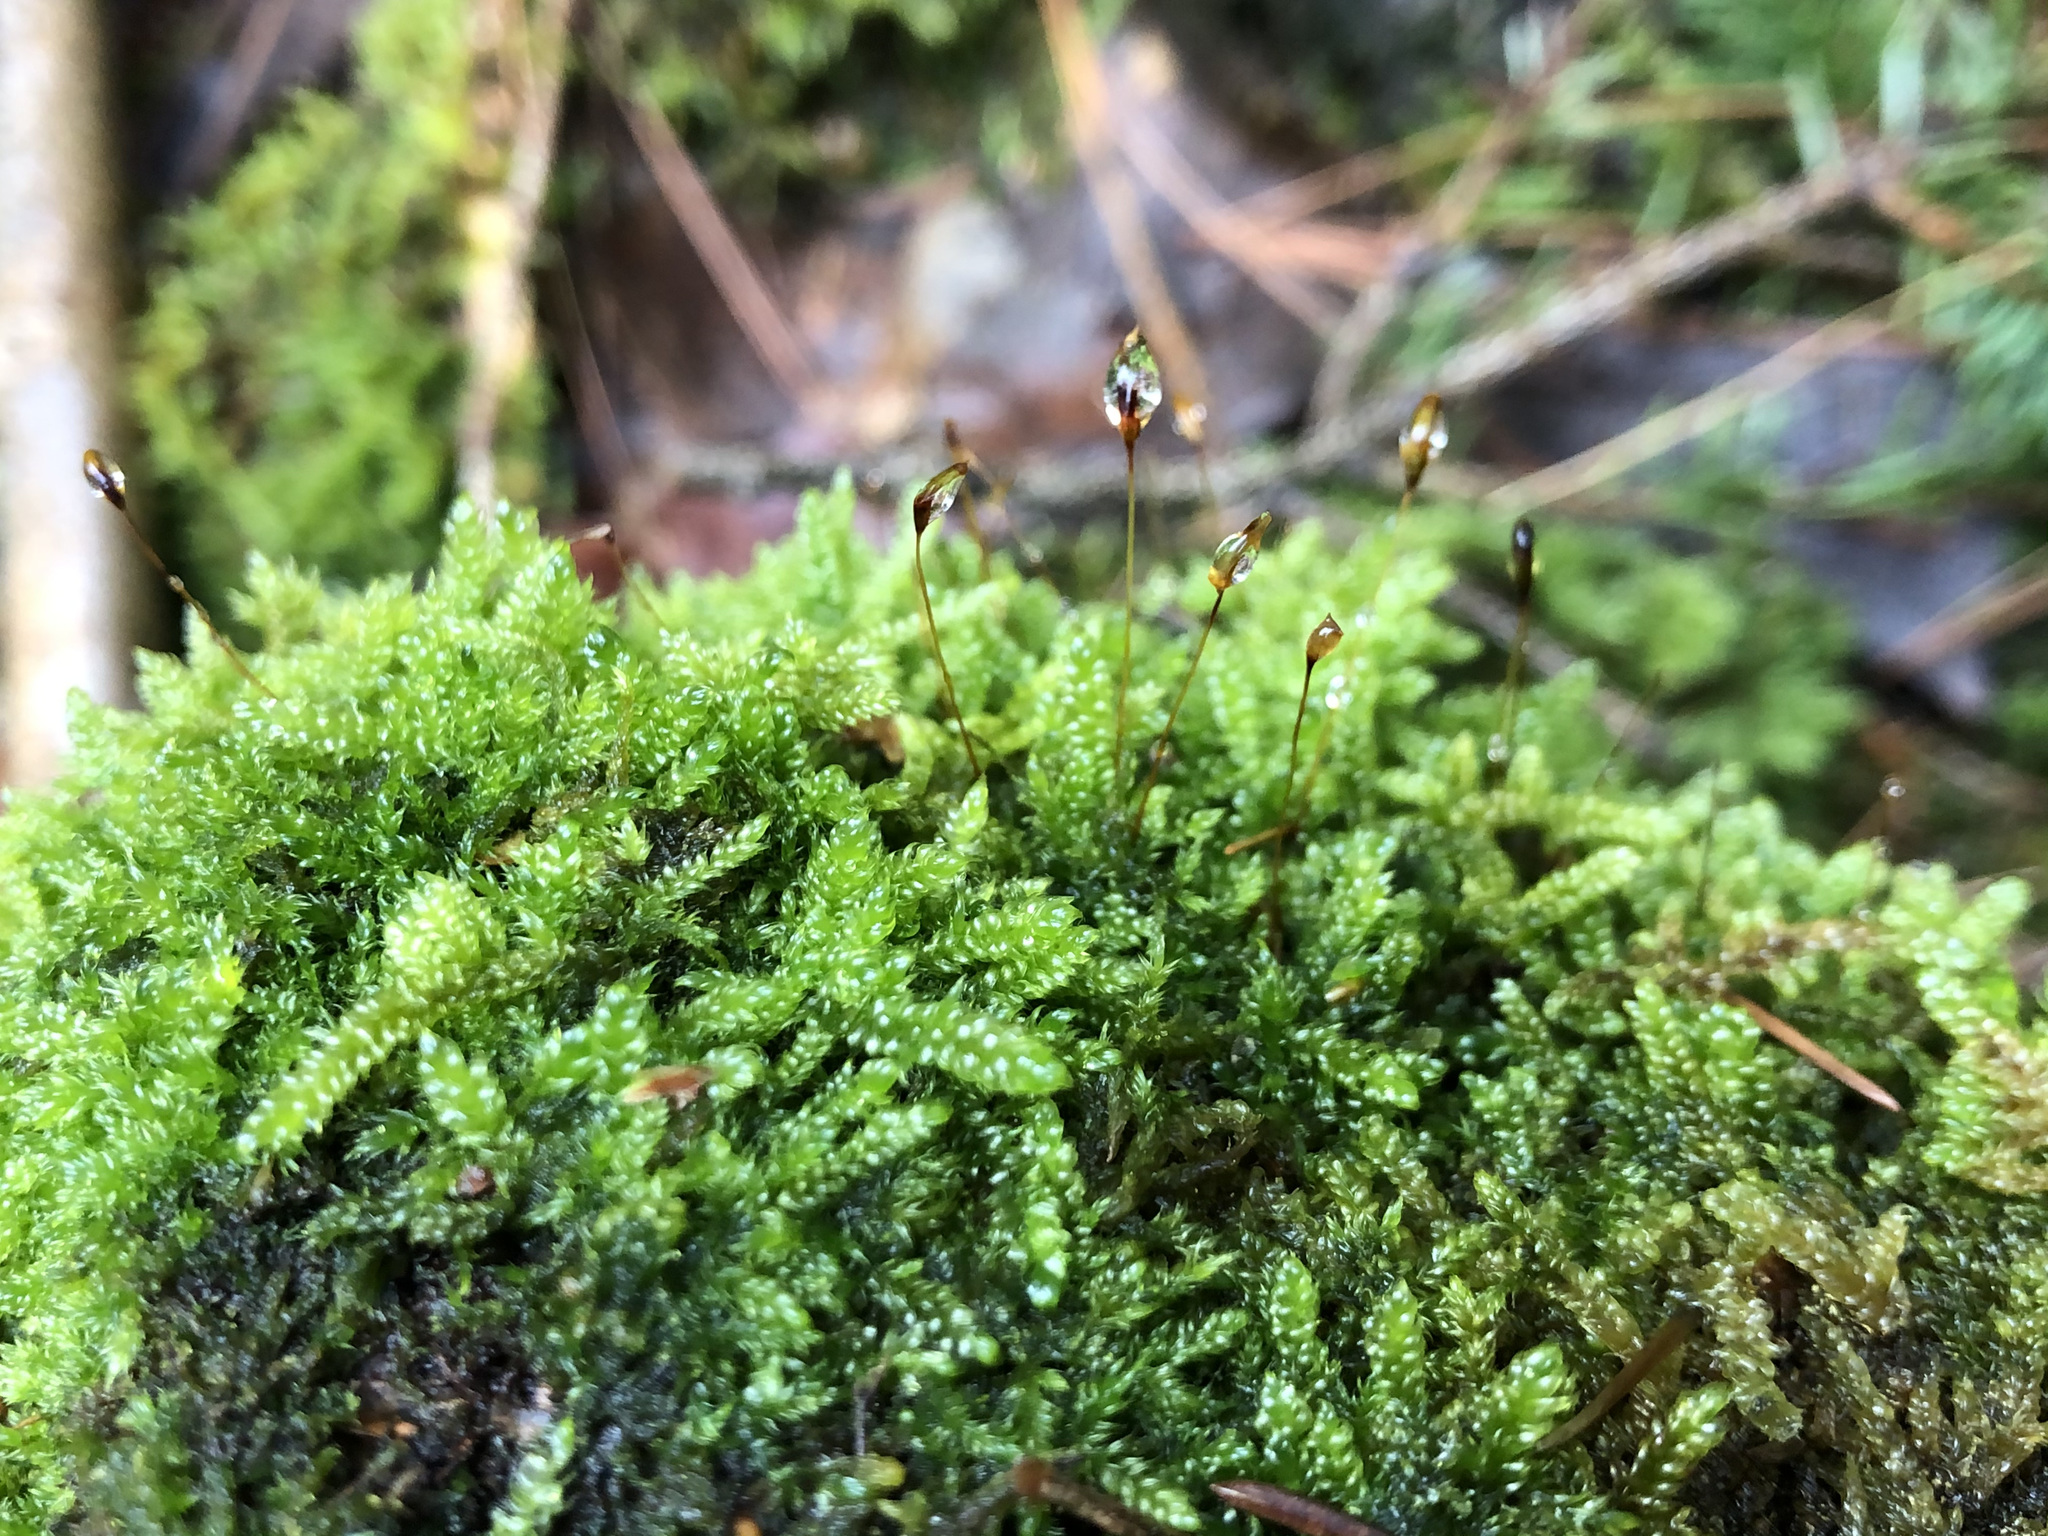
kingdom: Plantae
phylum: Bryophyta
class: Bryopsida
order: Hypnales
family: Hypnaceae
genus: Hypnum
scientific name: Hypnum cupressiforme
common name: Cypress-leaved plait-moss
